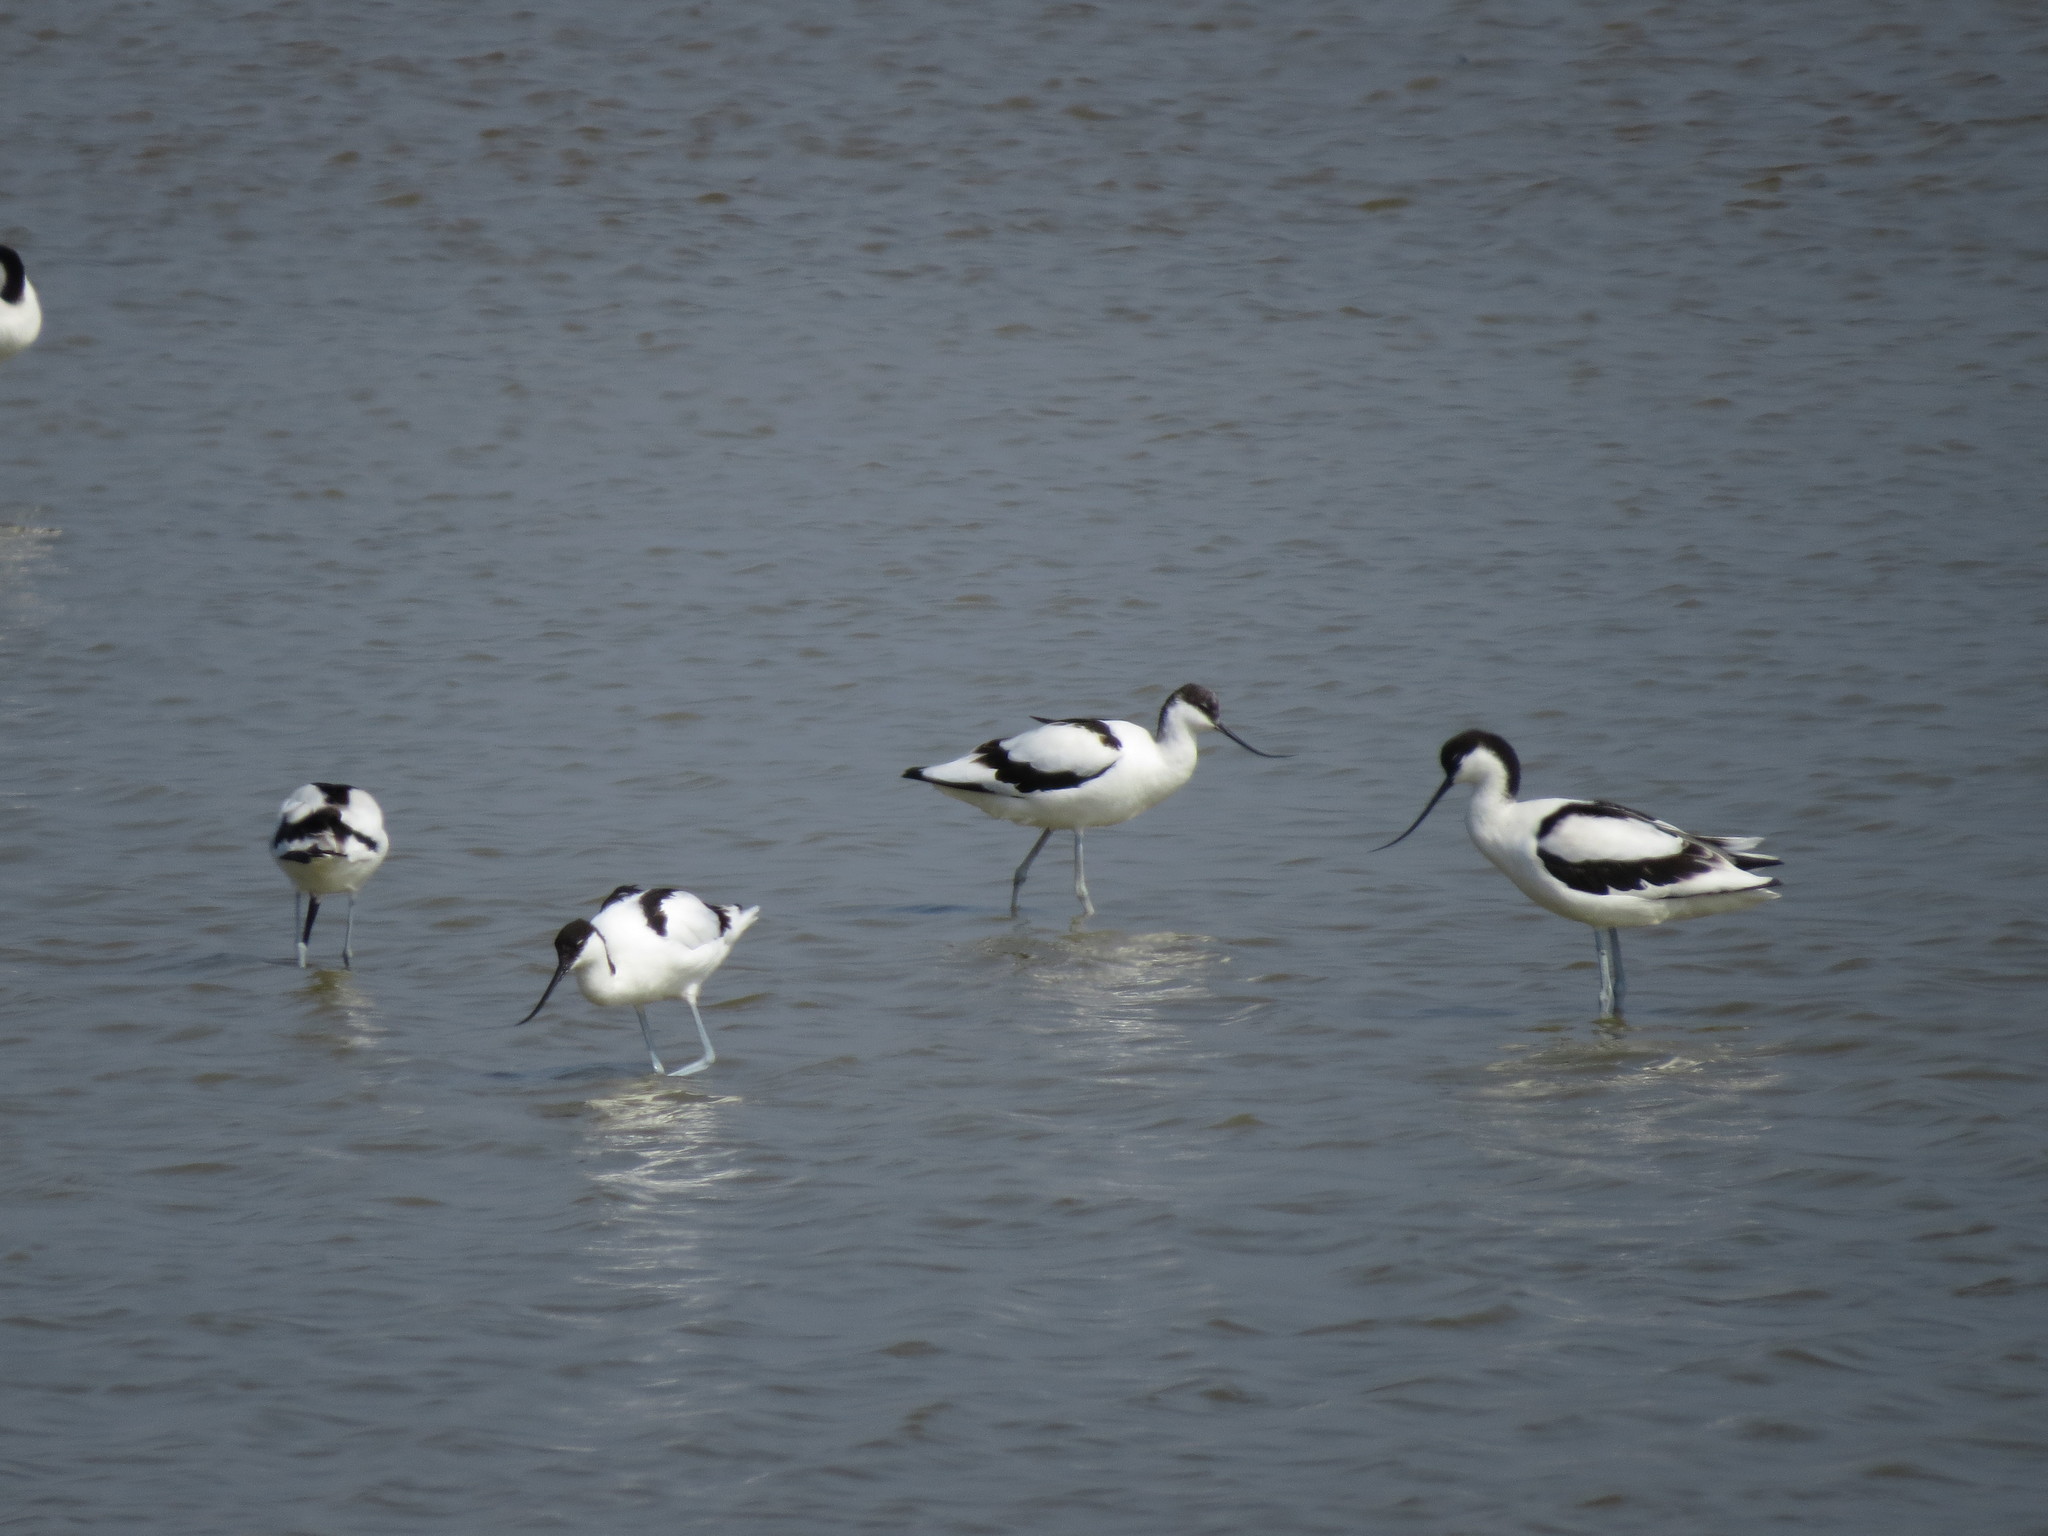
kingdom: Animalia
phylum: Chordata
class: Aves
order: Charadriiformes
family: Recurvirostridae
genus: Recurvirostra
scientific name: Recurvirostra avosetta
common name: Pied avocet
